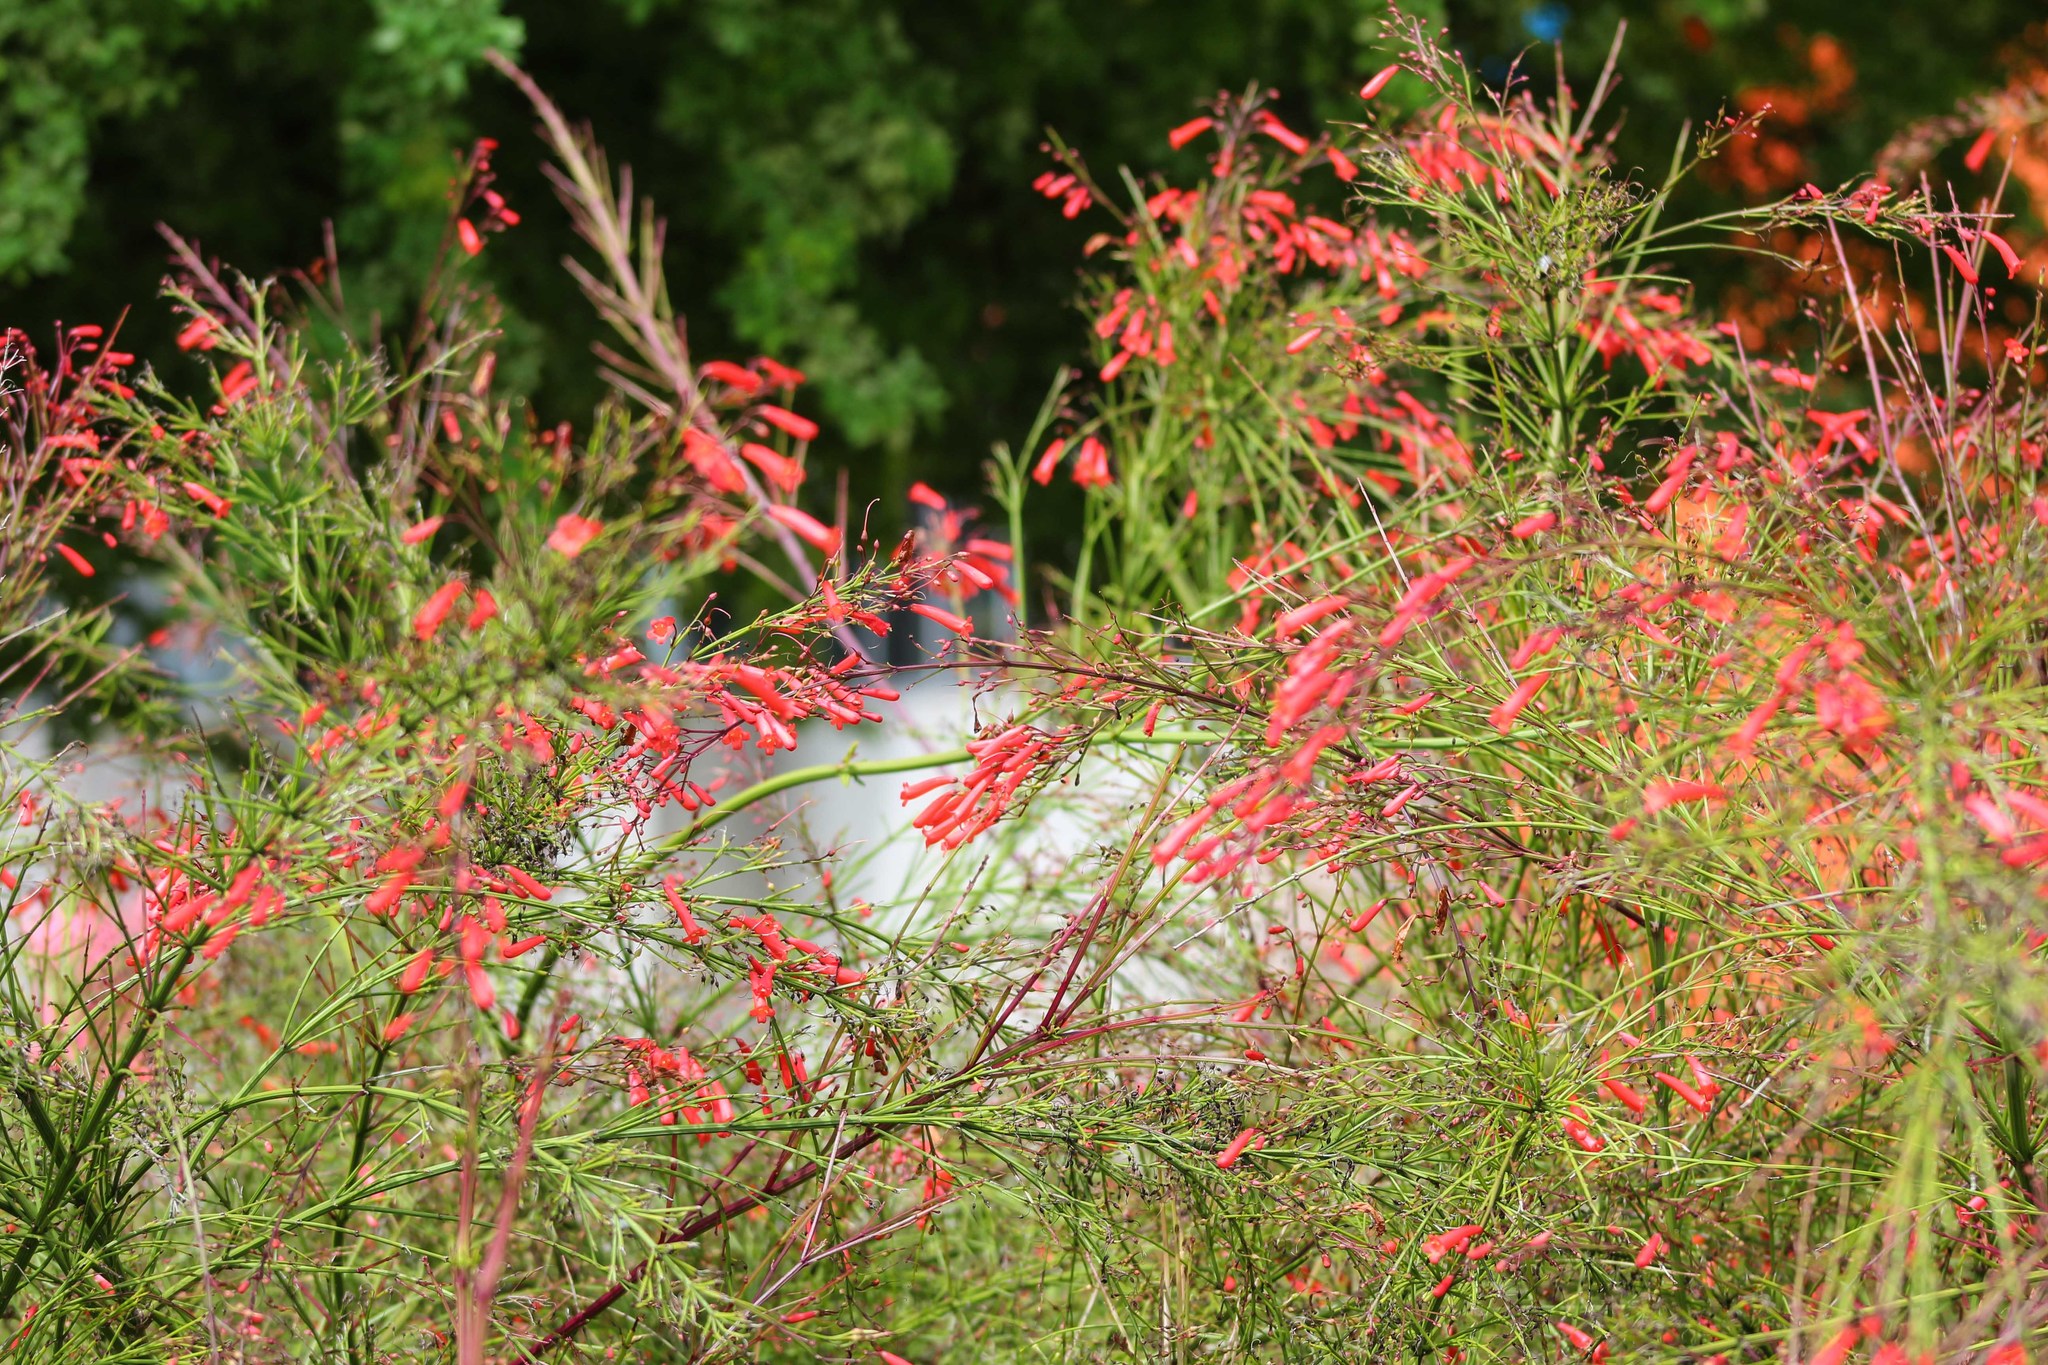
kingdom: Plantae
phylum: Tracheophyta
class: Magnoliopsida
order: Lamiales
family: Plantaginaceae
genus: Russelia
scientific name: Russelia equisetiformis
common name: Fountainbush
